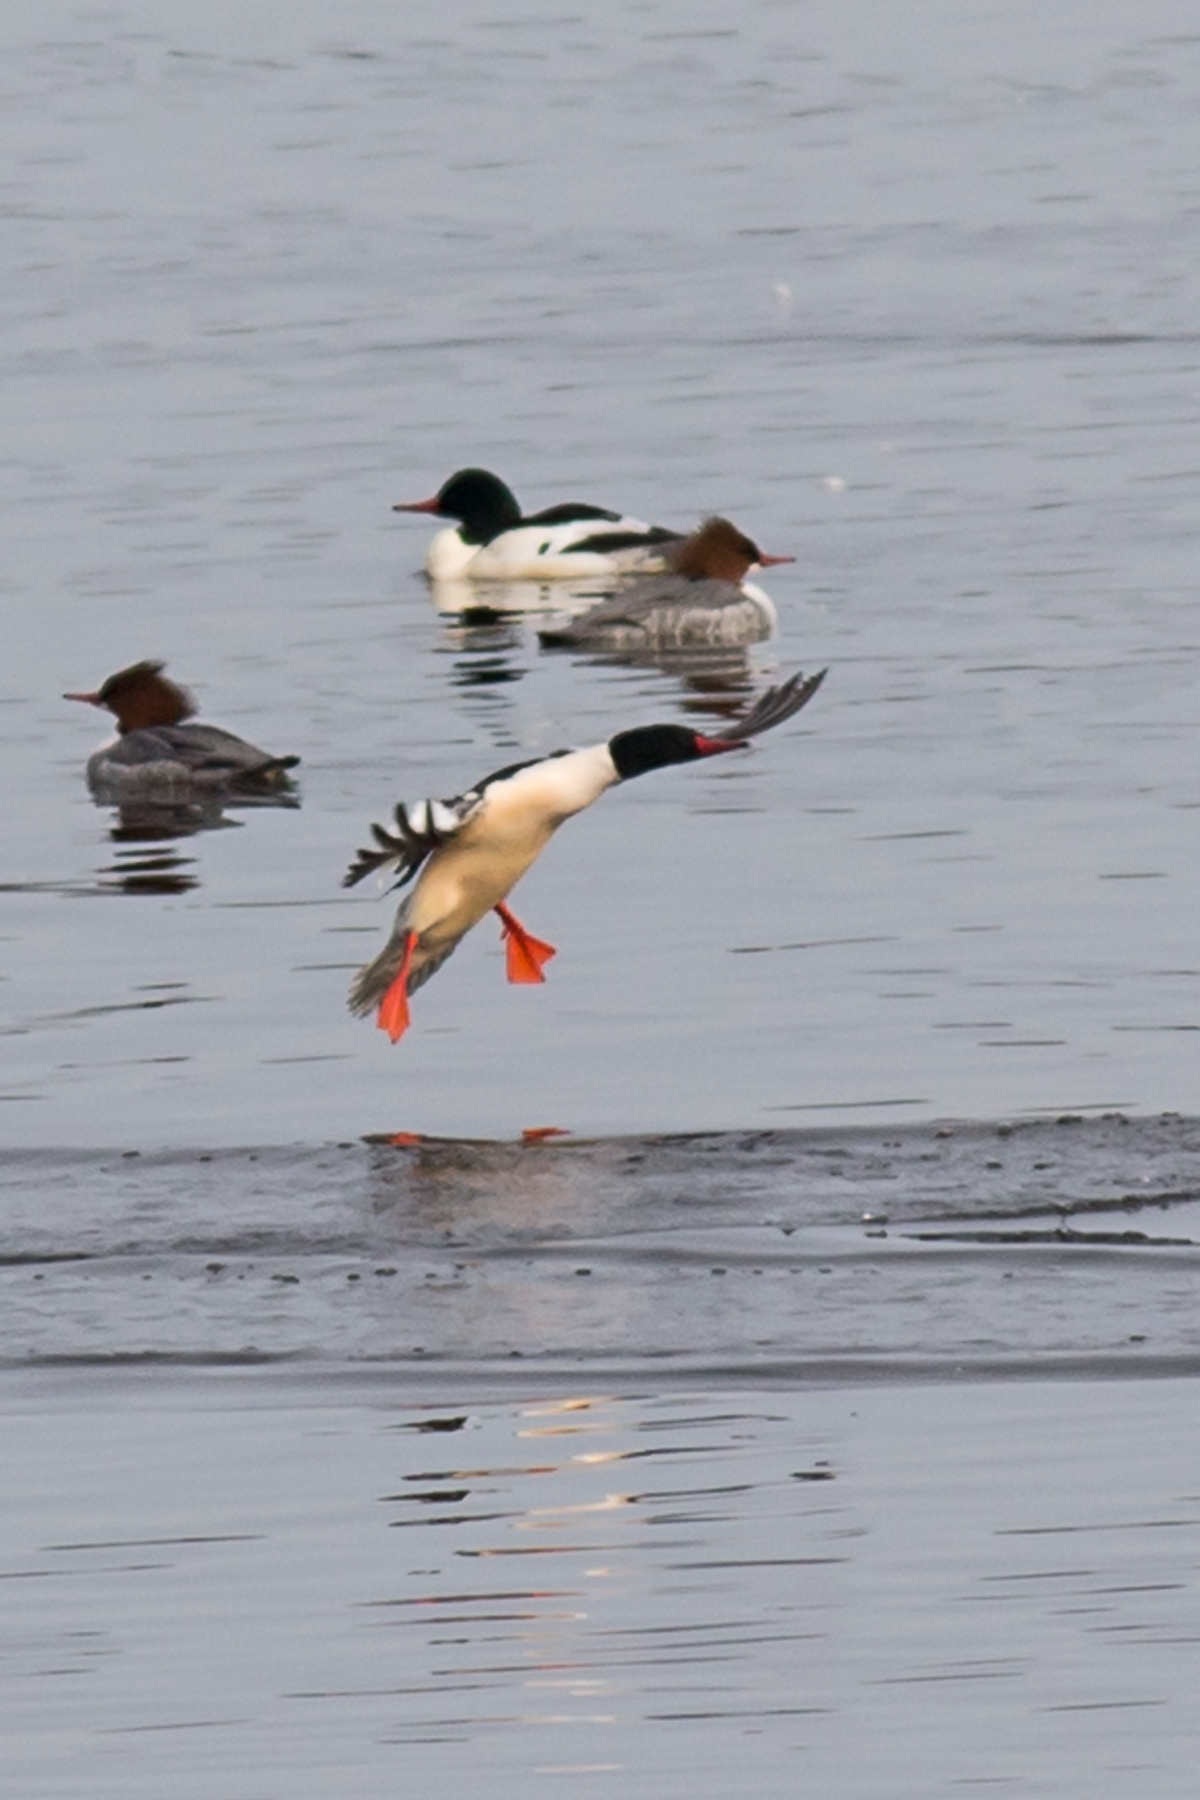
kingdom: Animalia
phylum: Chordata
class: Aves
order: Anseriformes
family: Anatidae
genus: Mergus
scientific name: Mergus merganser
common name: Common merganser
